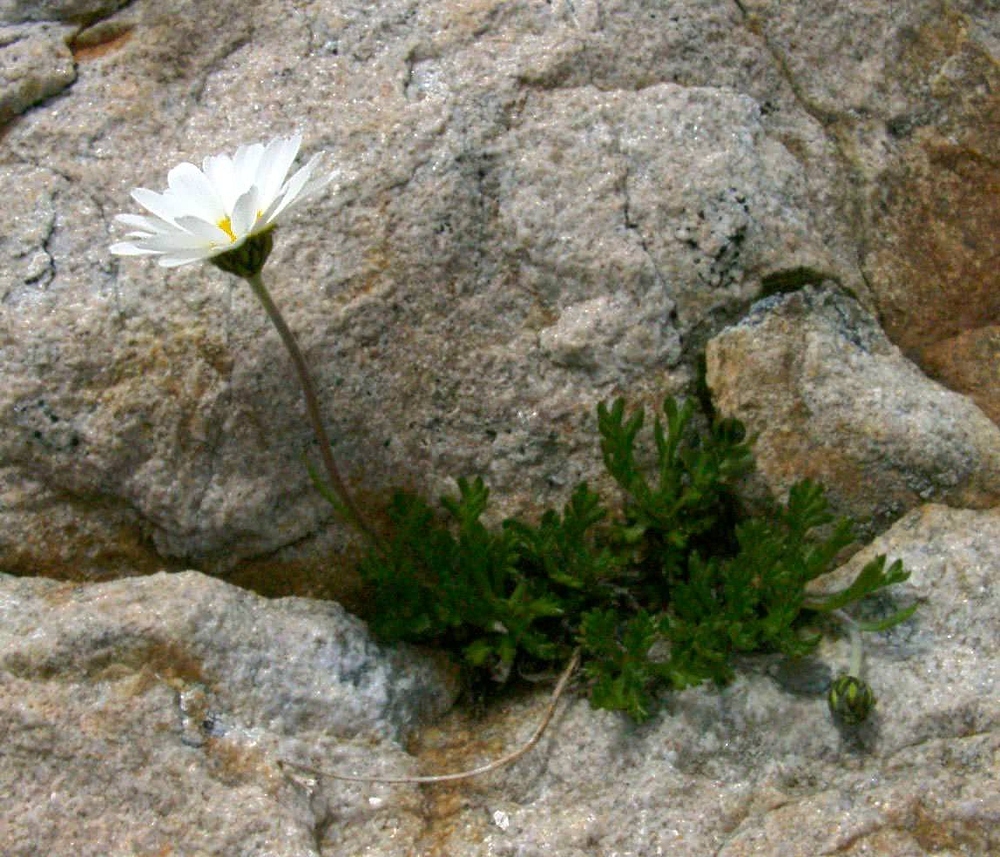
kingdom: Plantae
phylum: Tracheophyta
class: Magnoliopsida
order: Asterales
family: Asteraceae
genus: Leucanthemopsis
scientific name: Leucanthemopsis alpina
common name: Alpine moon daisy
